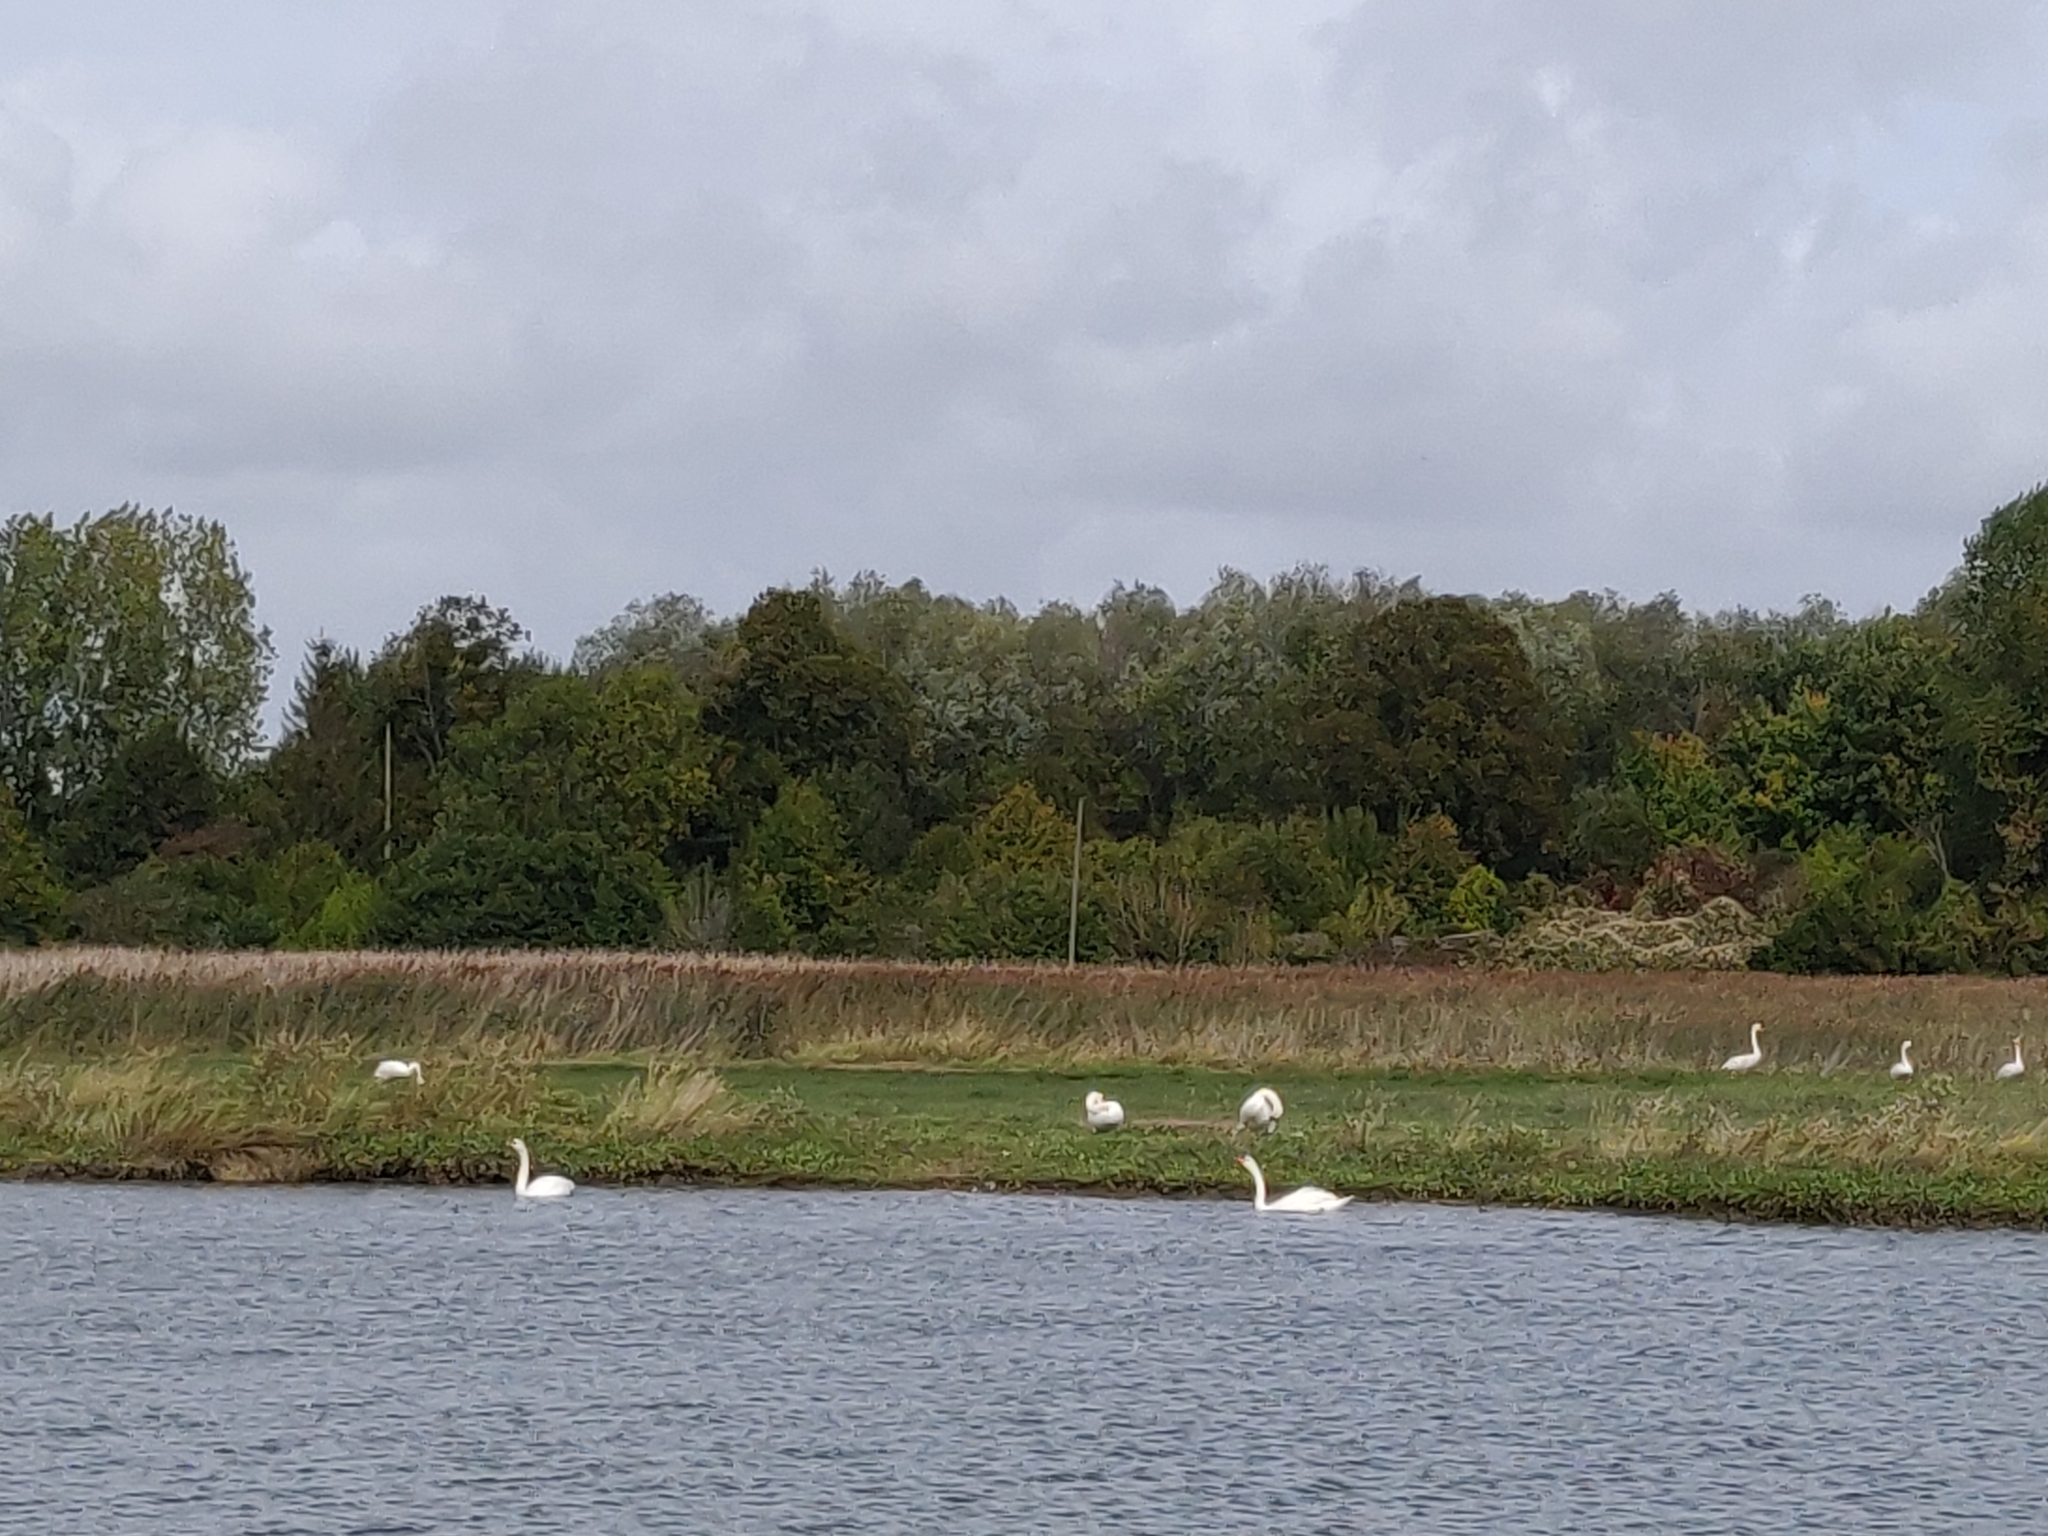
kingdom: Animalia
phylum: Chordata
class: Aves
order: Anseriformes
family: Anatidae
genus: Cygnus
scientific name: Cygnus olor
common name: Mute swan
